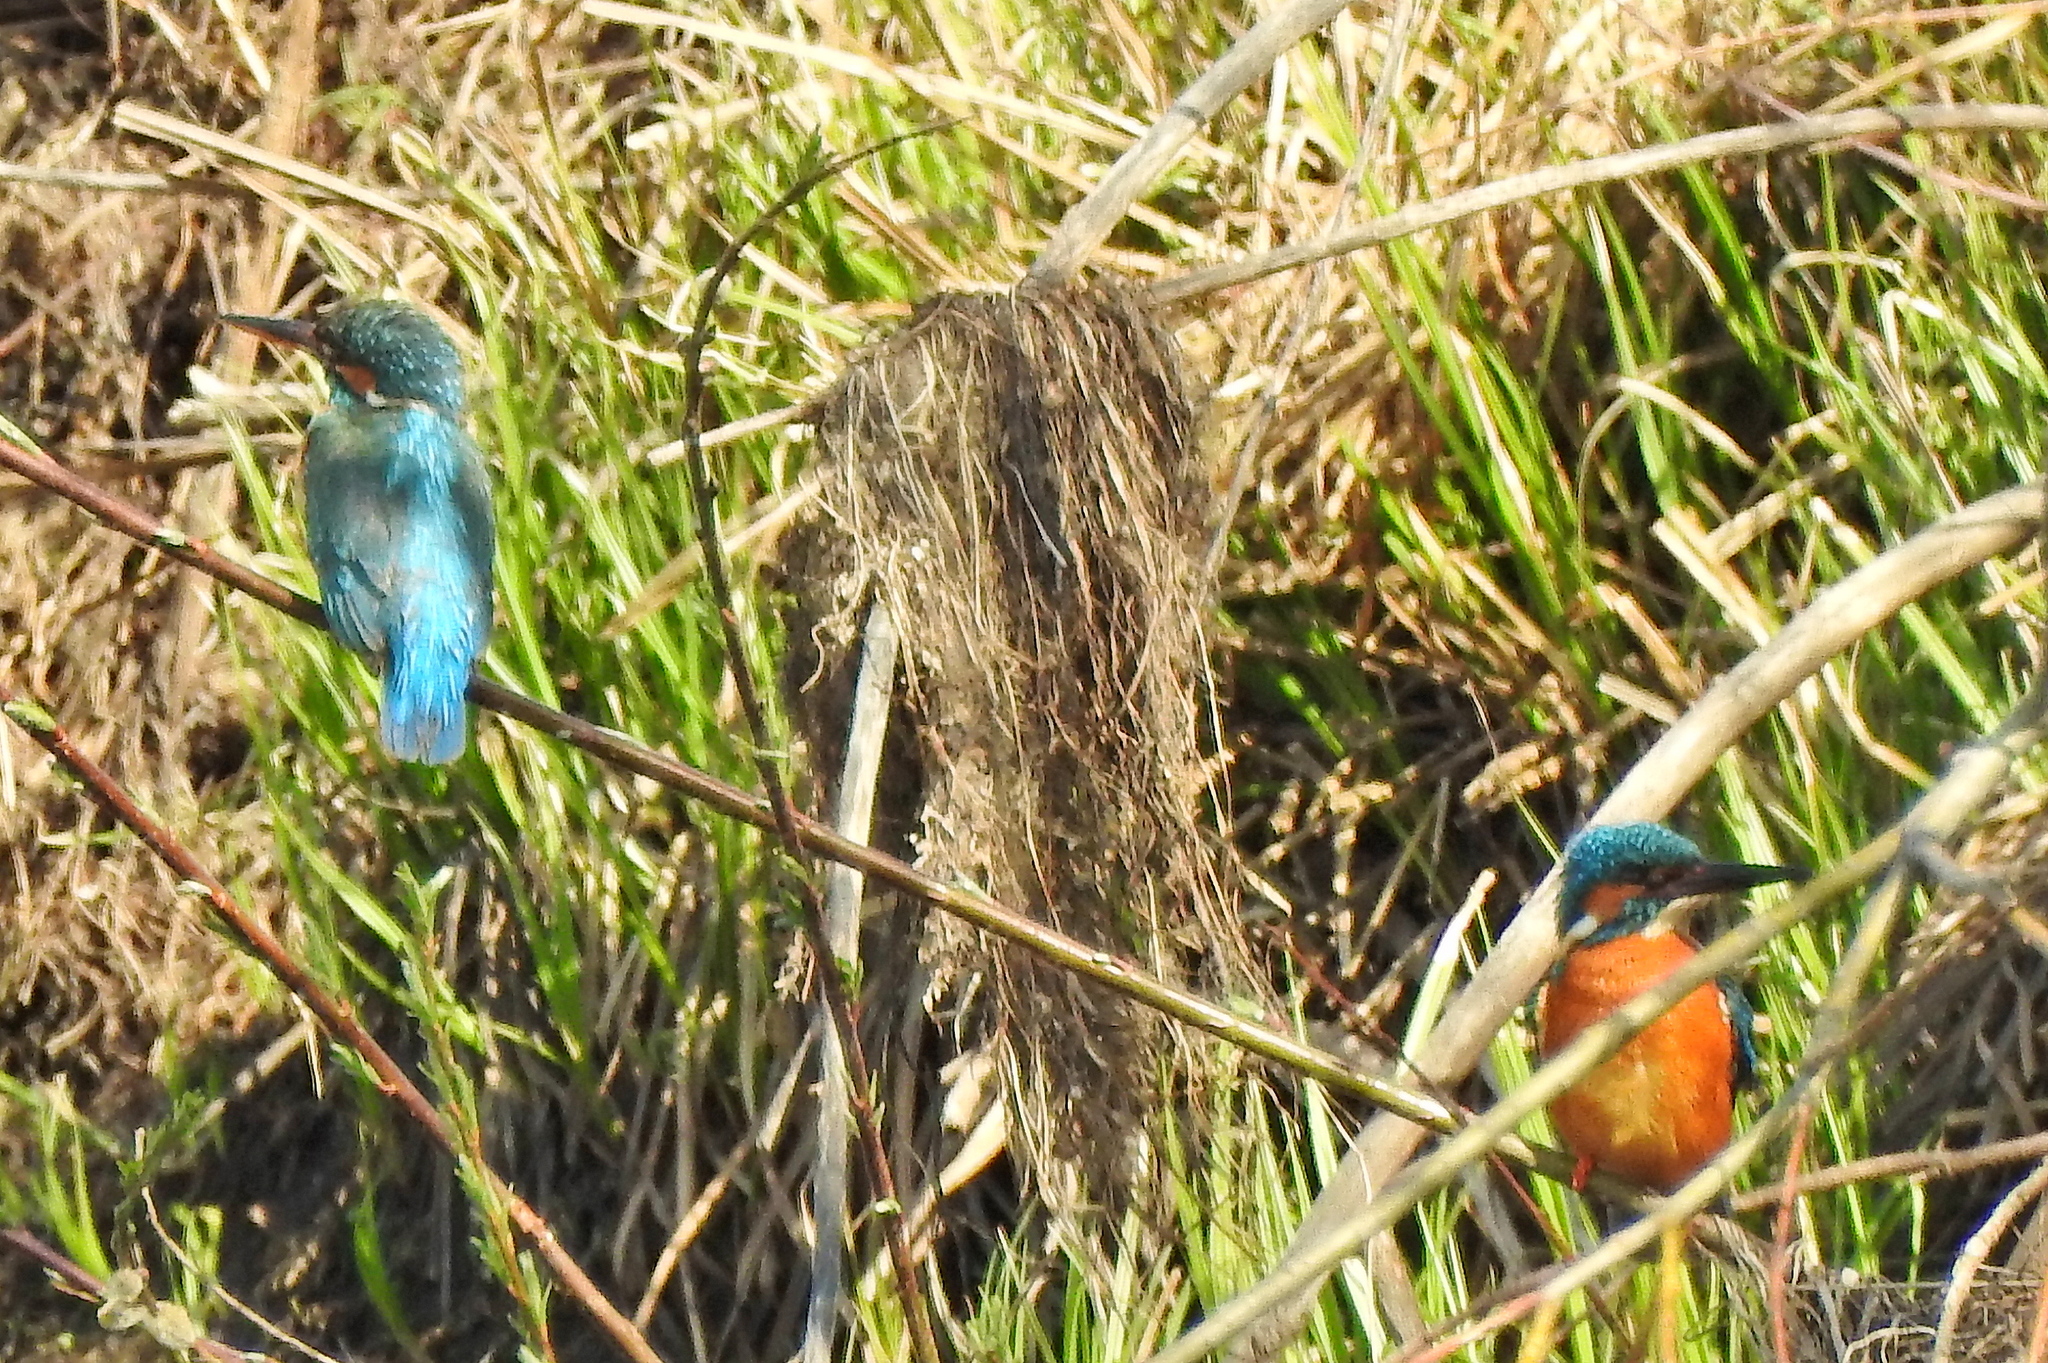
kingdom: Animalia
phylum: Chordata
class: Aves
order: Coraciiformes
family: Alcedinidae
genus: Alcedo
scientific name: Alcedo atthis
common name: Common kingfisher
